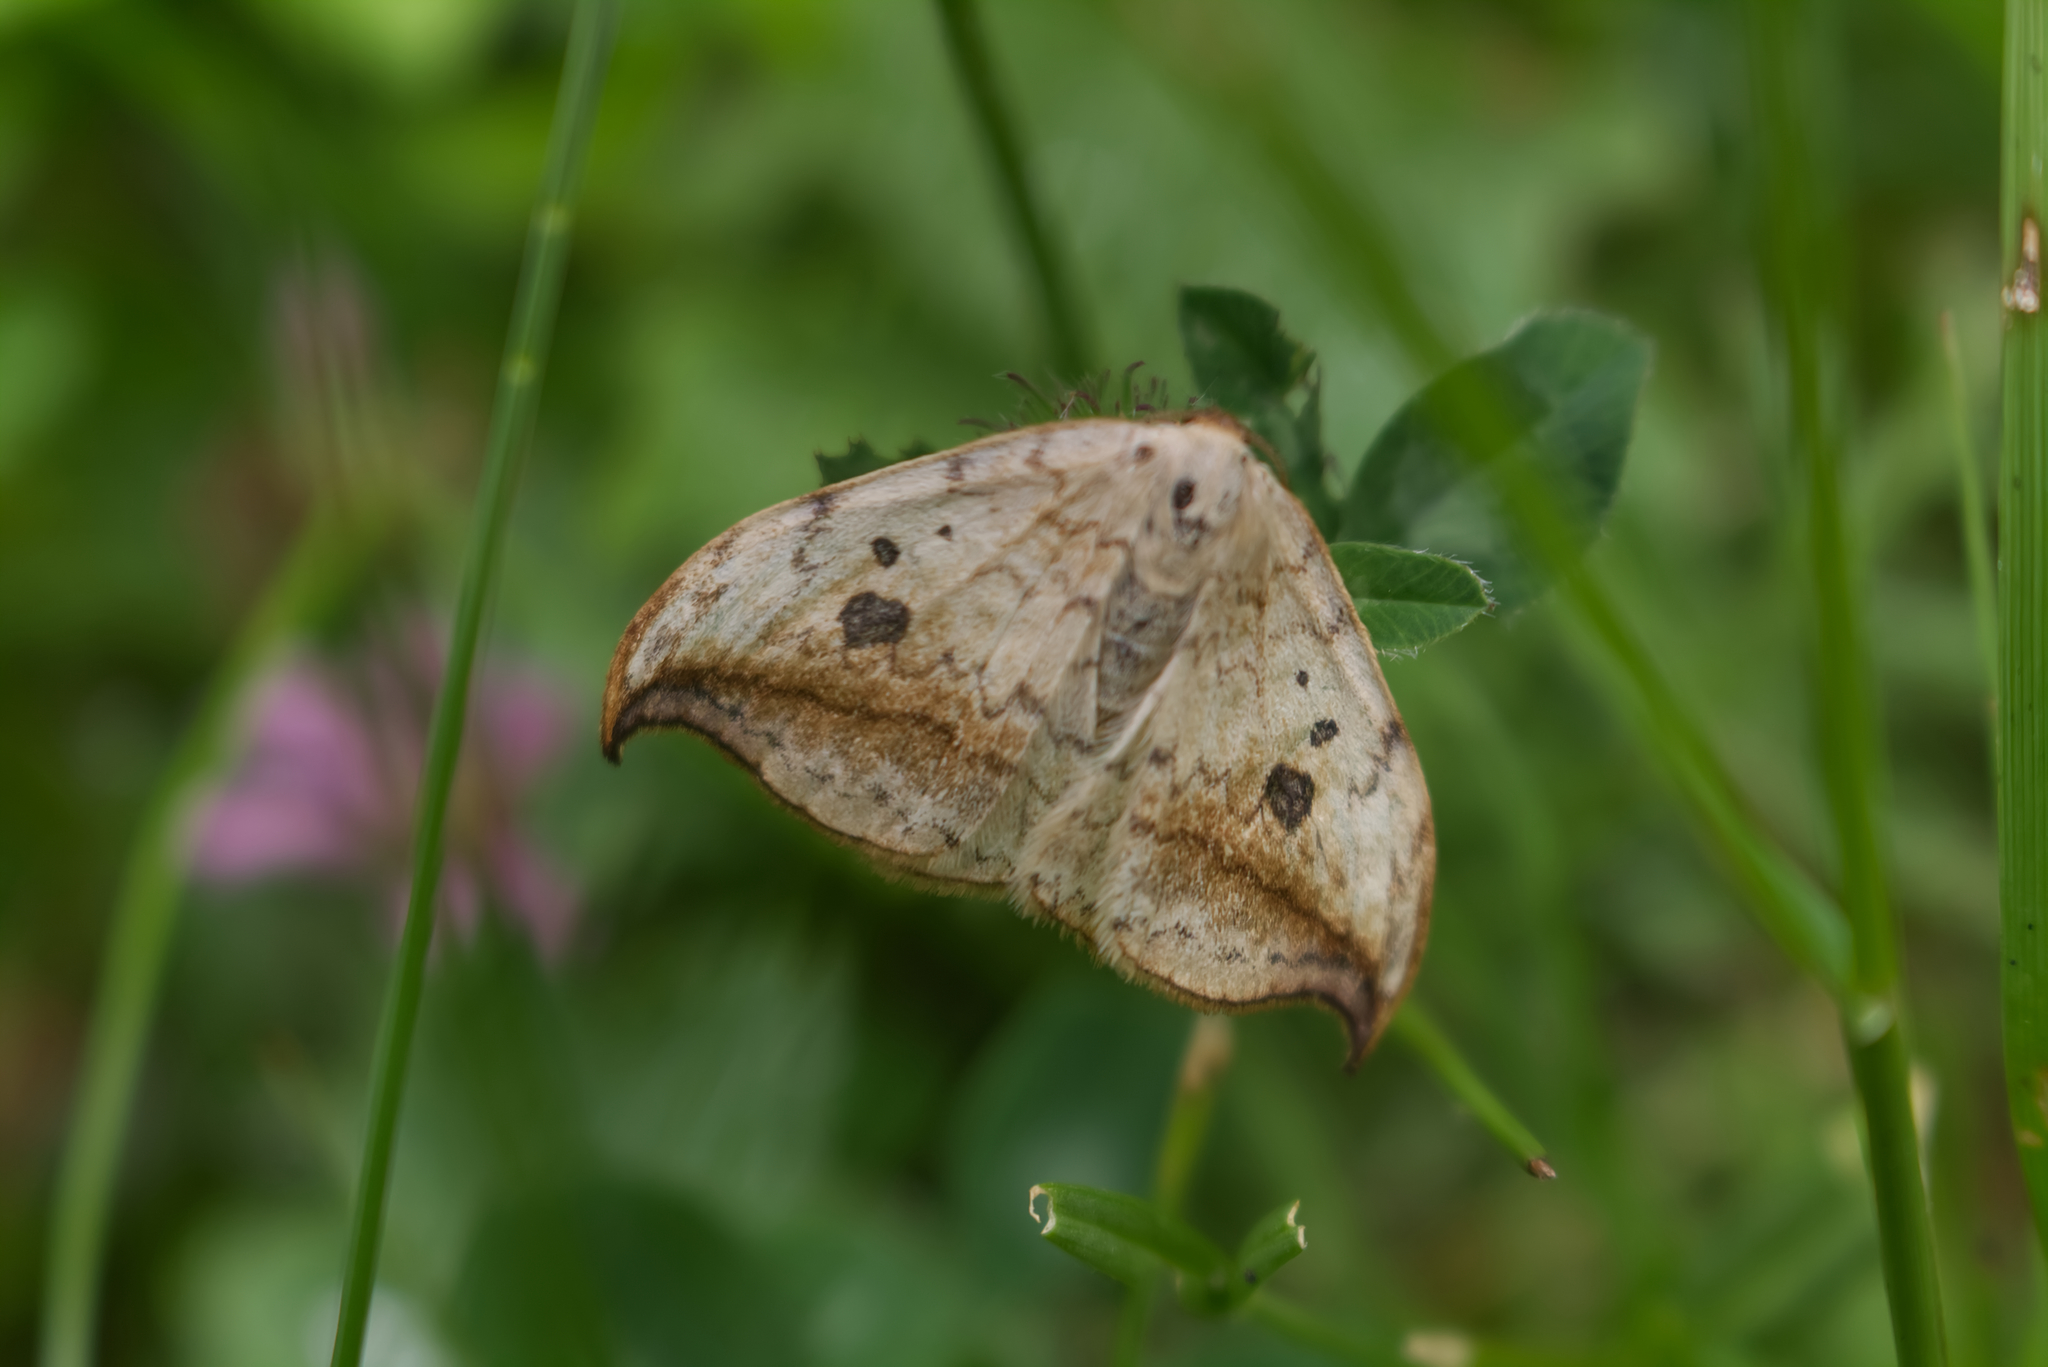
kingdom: Animalia
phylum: Arthropoda
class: Insecta
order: Lepidoptera
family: Drepanidae
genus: Drepana
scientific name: Drepana falcataria
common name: Pebble hook-tip
